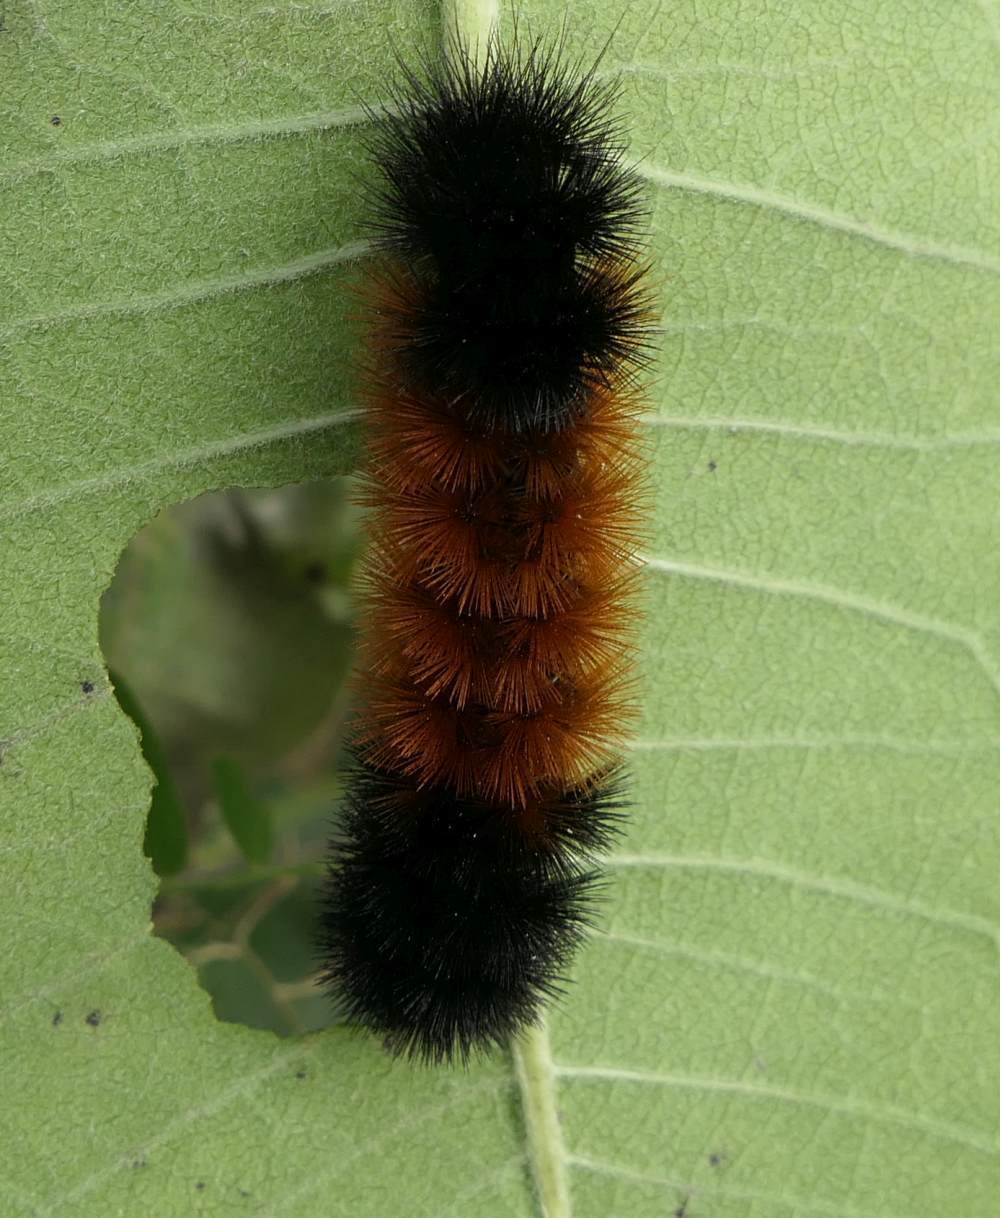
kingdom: Animalia
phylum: Arthropoda
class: Insecta
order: Lepidoptera
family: Erebidae
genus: Pyrrharctia
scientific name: Pyrrharctia isabella
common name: Isabella tiger moth
